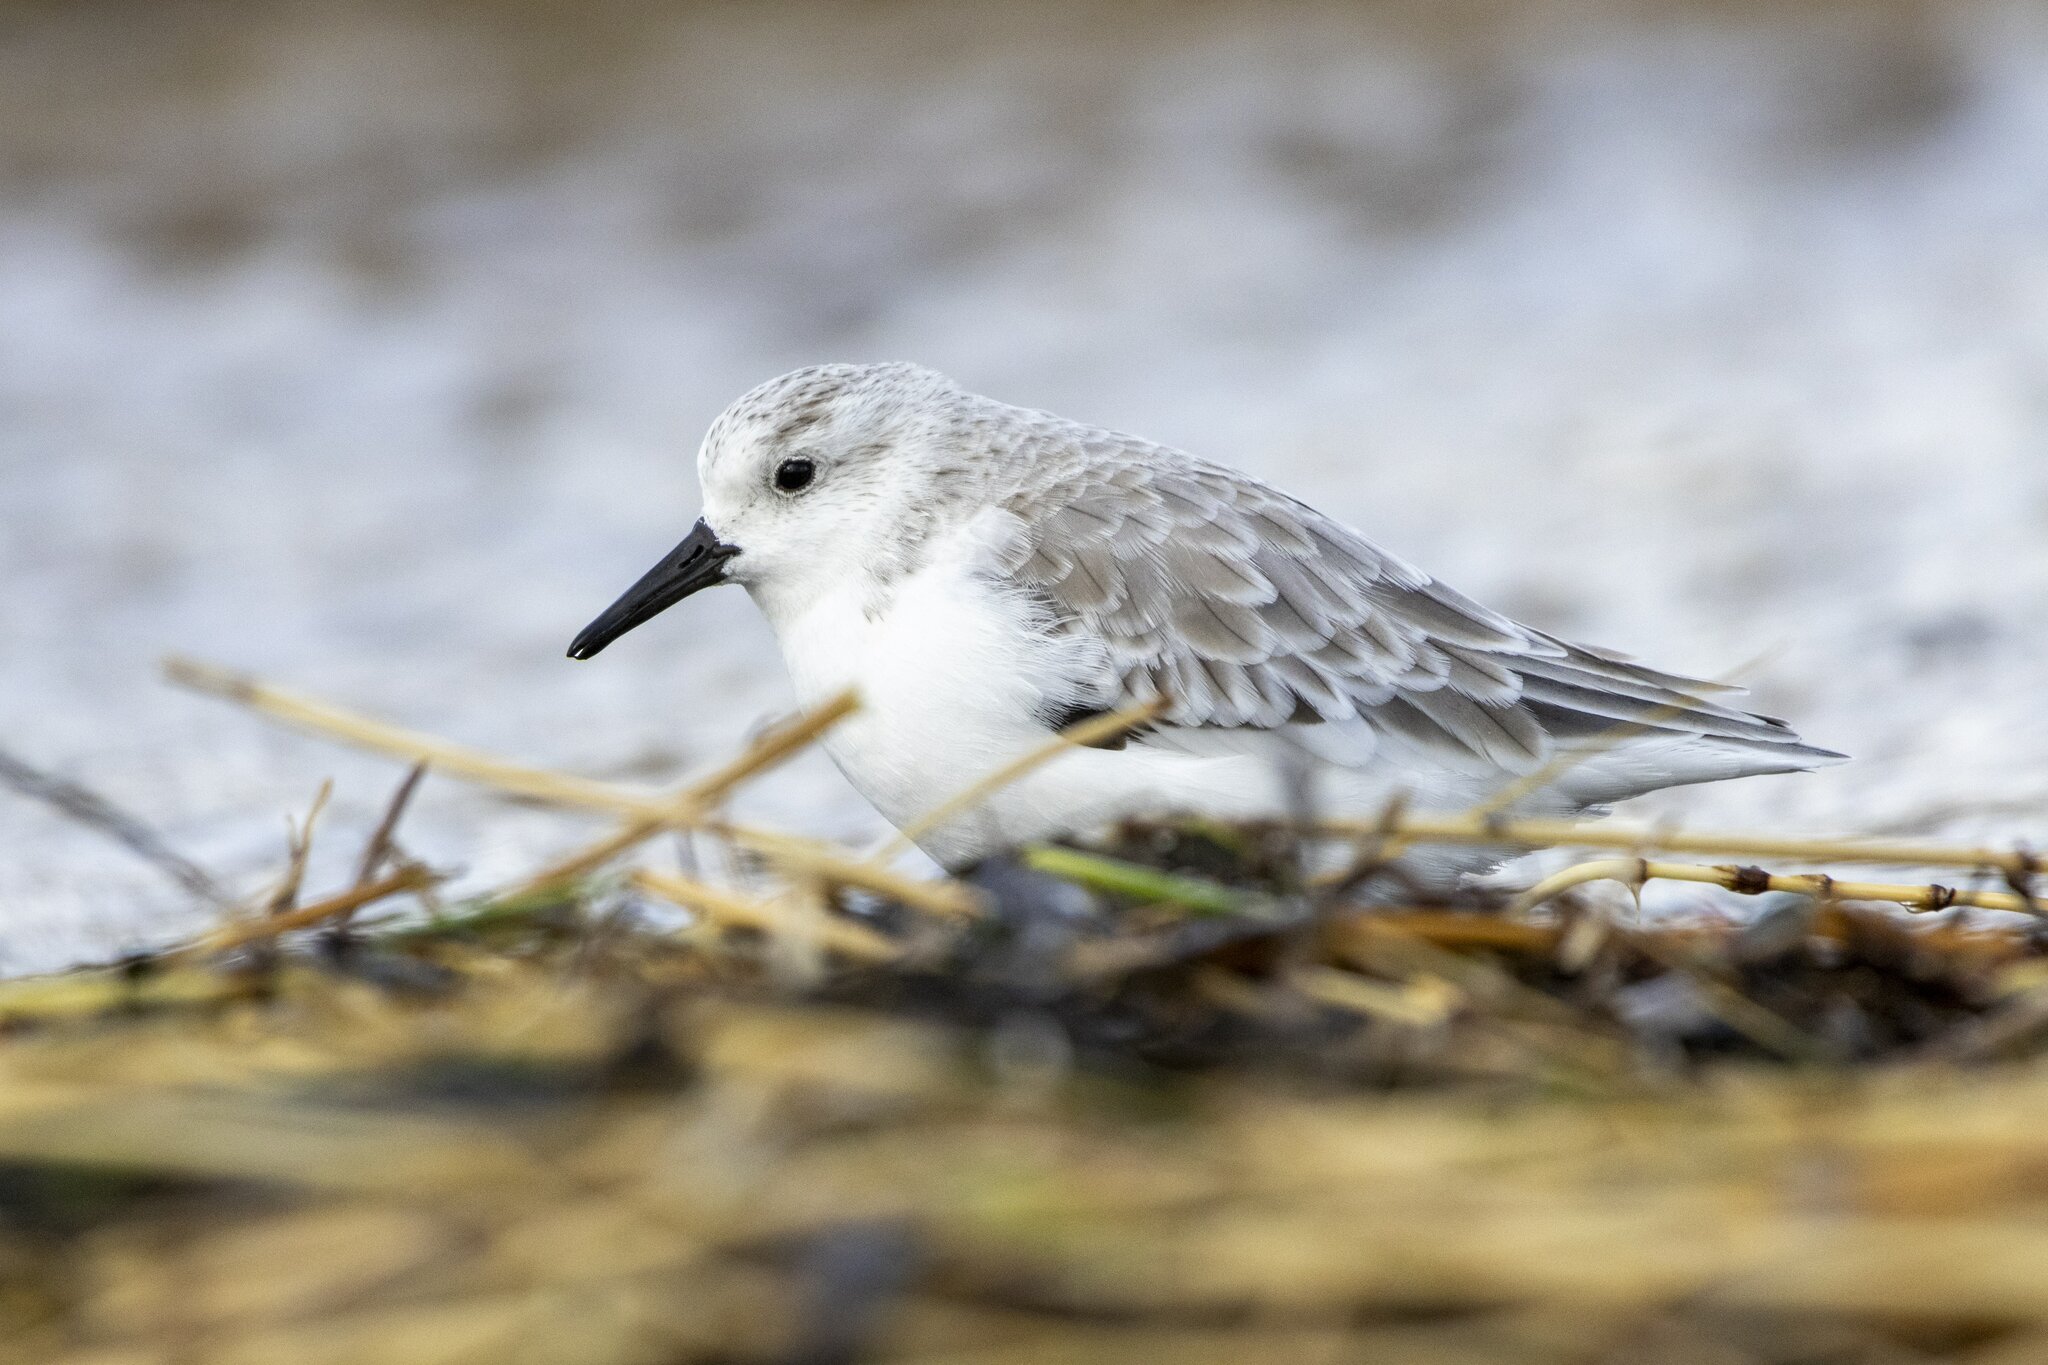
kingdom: Animalia
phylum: Chordata
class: Aves
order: Charadriiformes
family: Scolopacidae
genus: Calidris
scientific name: Calidris alba
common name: Sanderling
